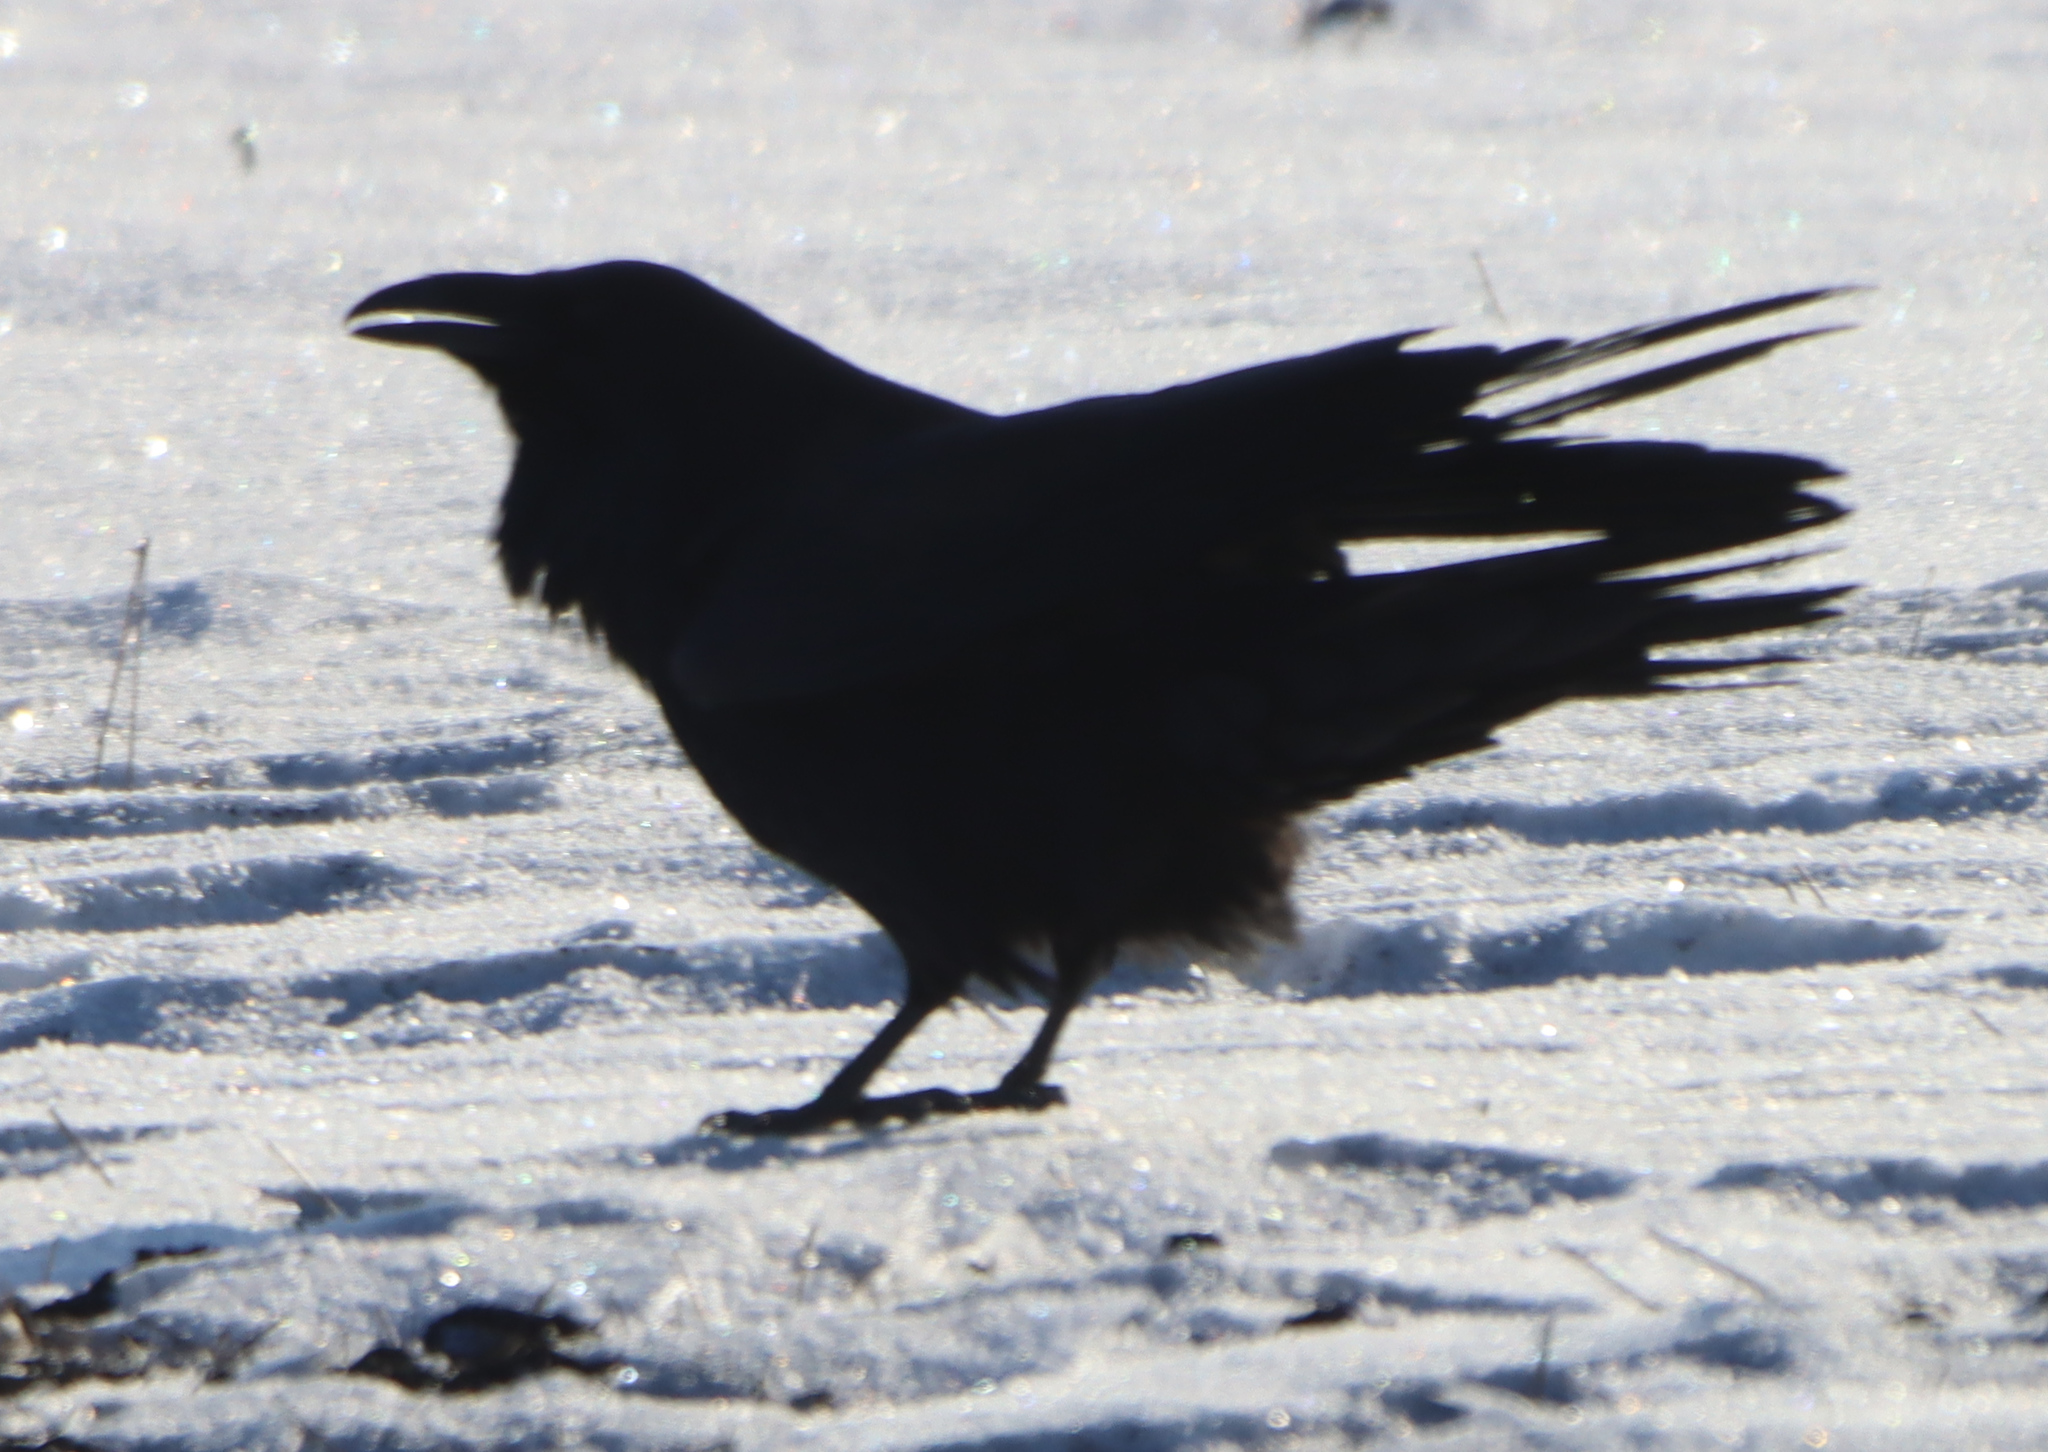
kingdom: Animalia
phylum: Chordata
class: Aves
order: Passeriformes
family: Corvidae
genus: Corvus
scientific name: Corvus corax
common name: Common raven
